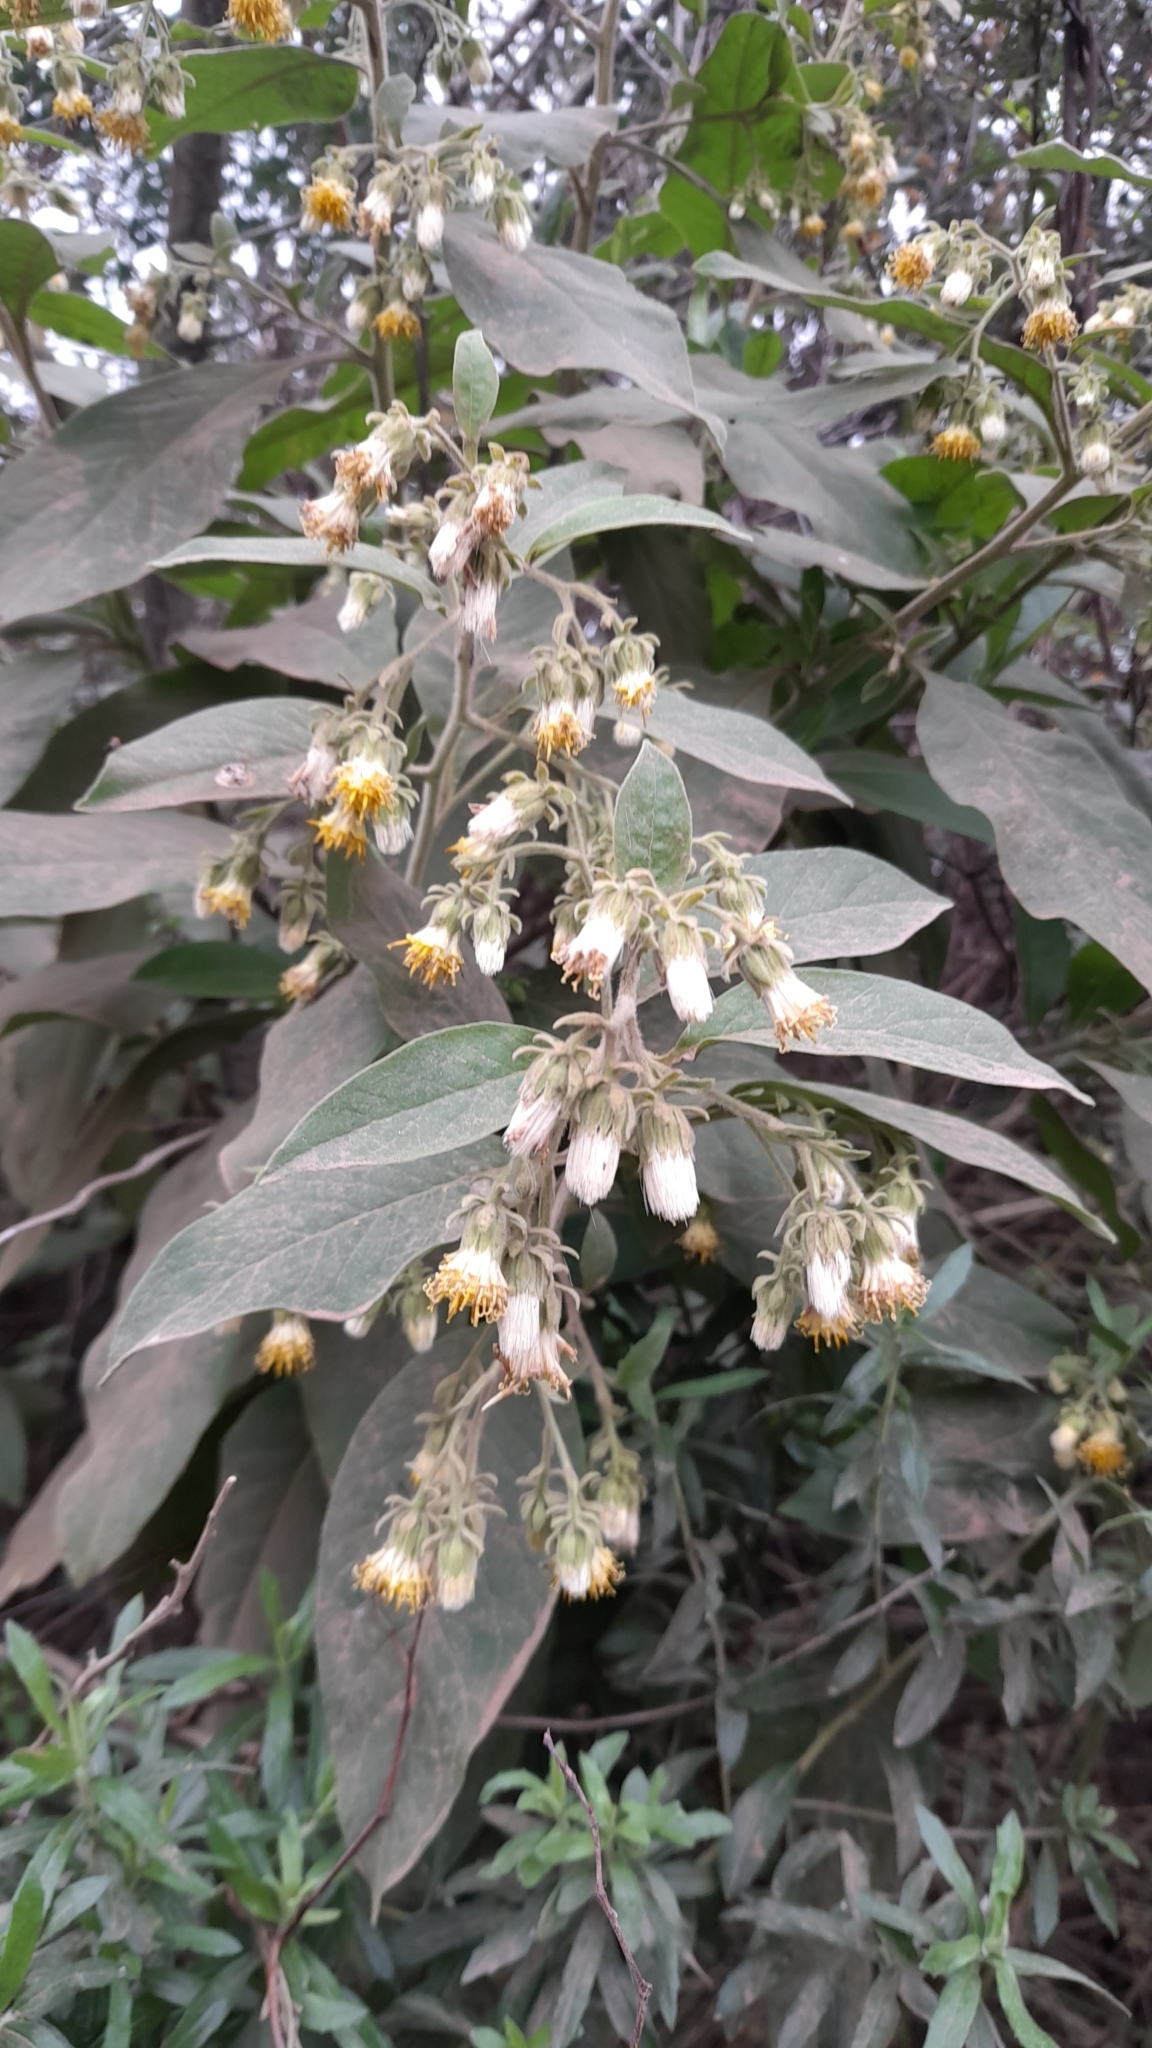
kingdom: Plantae
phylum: Tracheophyta
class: Magnoliopsida
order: Asterales
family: Asteraceae
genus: Trixis
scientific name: Trixis praestans
